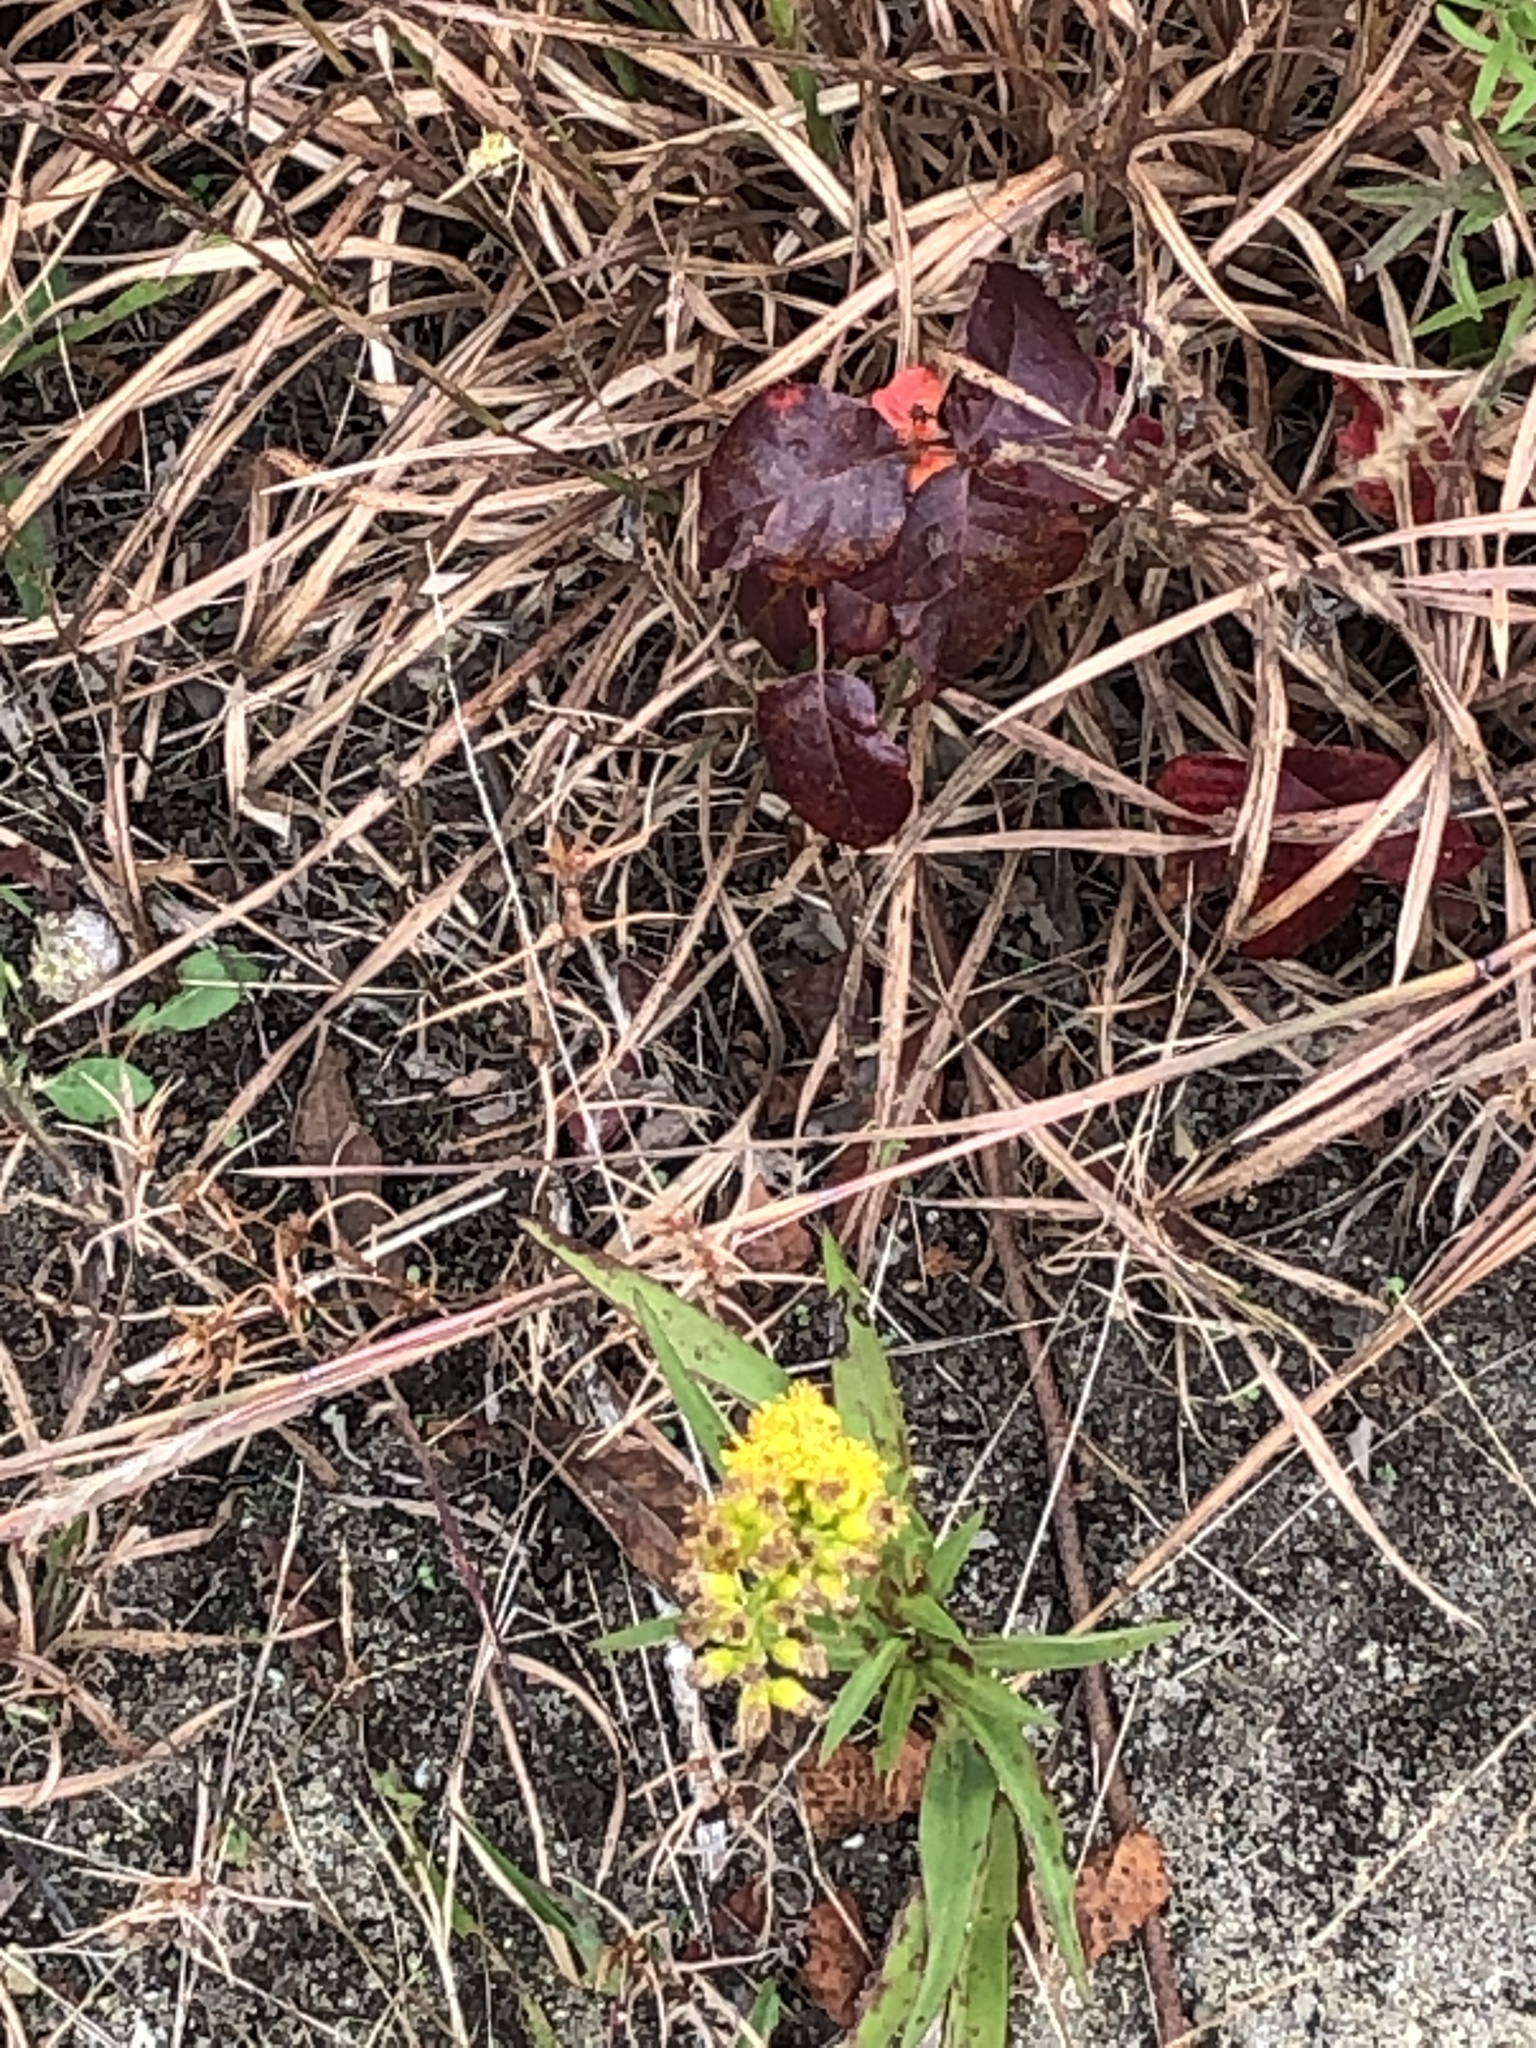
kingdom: Plantae
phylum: Tracheophyta
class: Magnoliopsida
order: Sapindales
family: Anacardiaceae
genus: Toxicodendron
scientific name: Toxicodendron radicans
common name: Poison ivy
